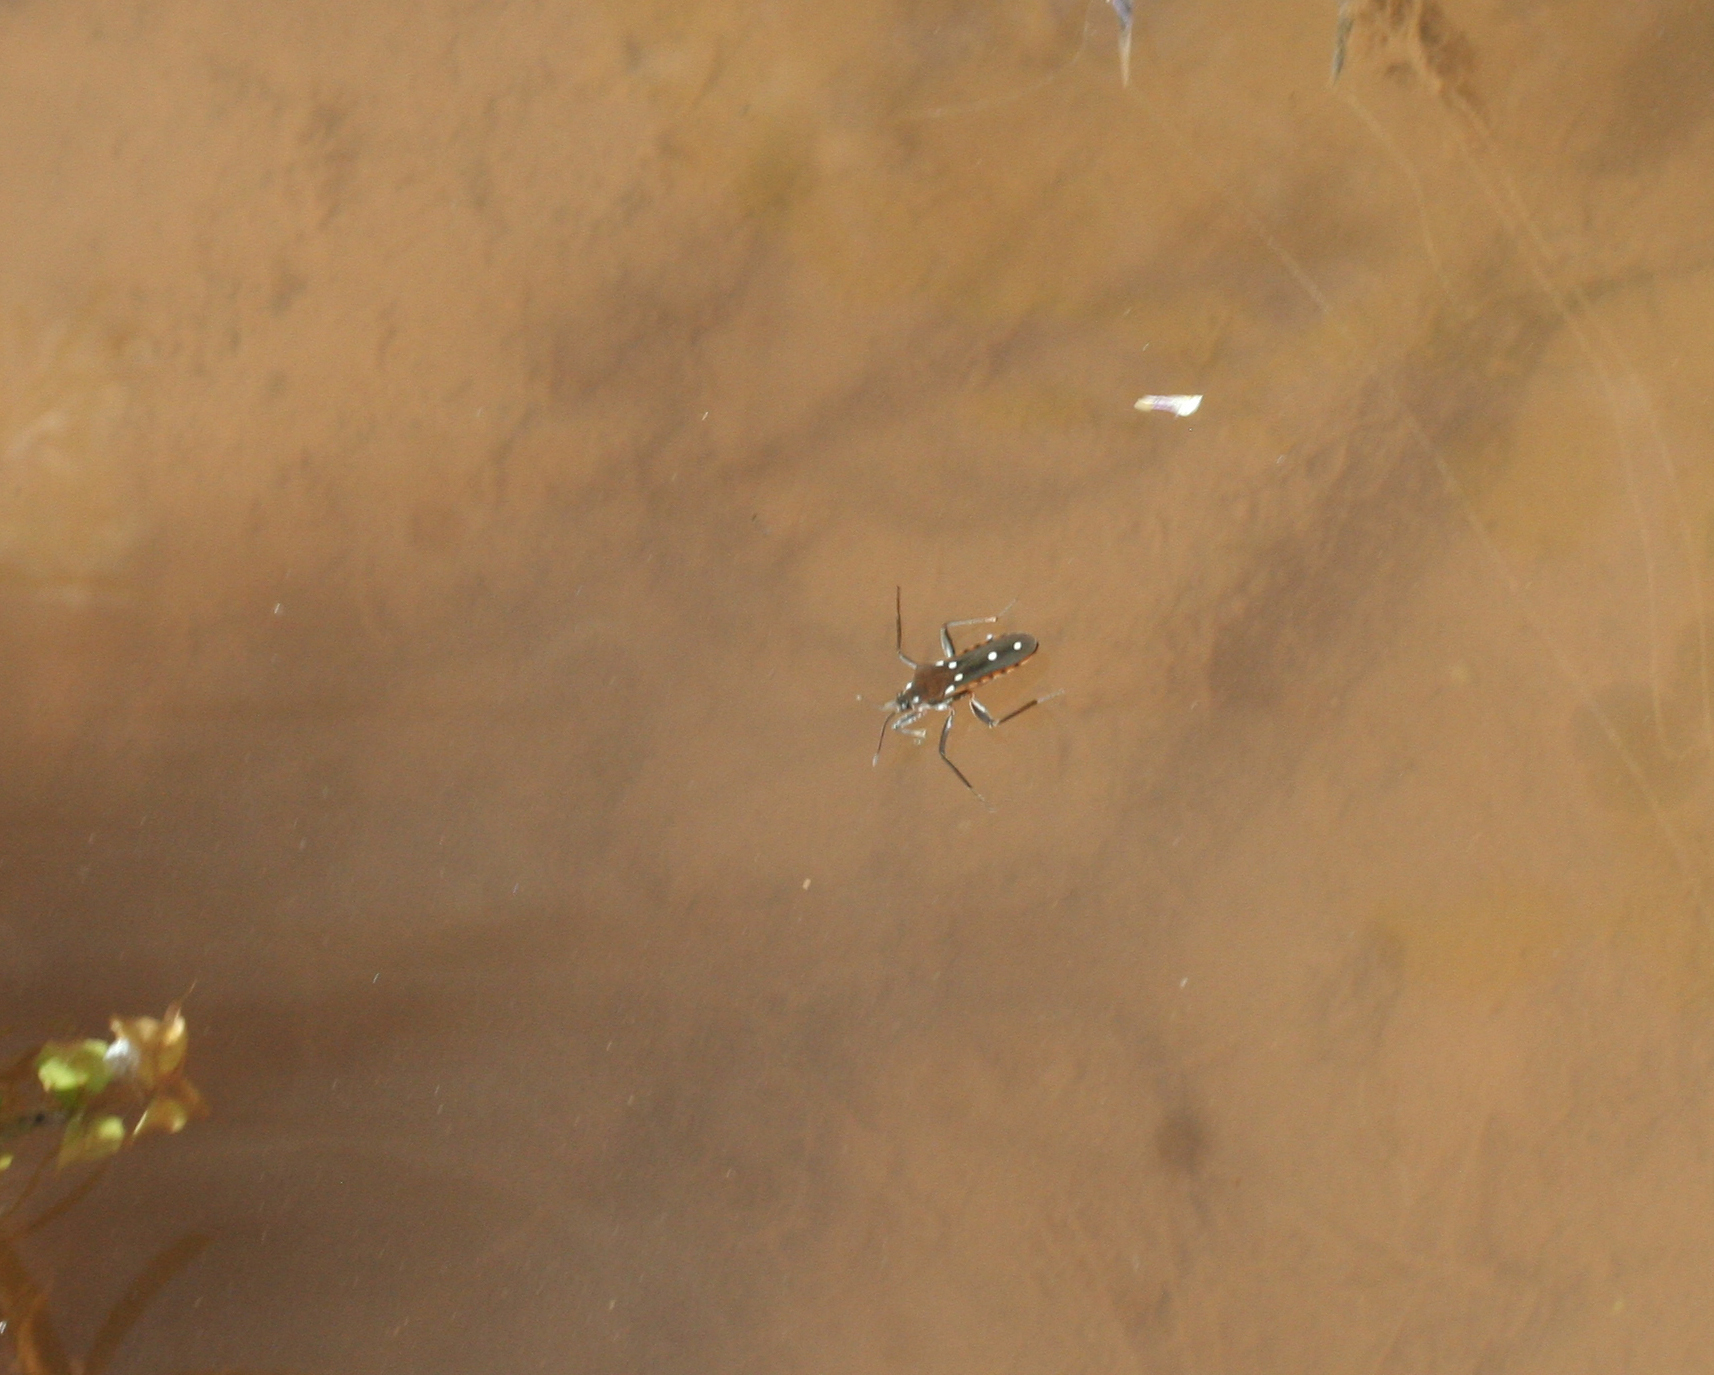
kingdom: Animalia
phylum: Arthropoda
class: Insecta
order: Hemiptera
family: Veliidae
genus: Plesiovelia
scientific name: Plesiovelia
